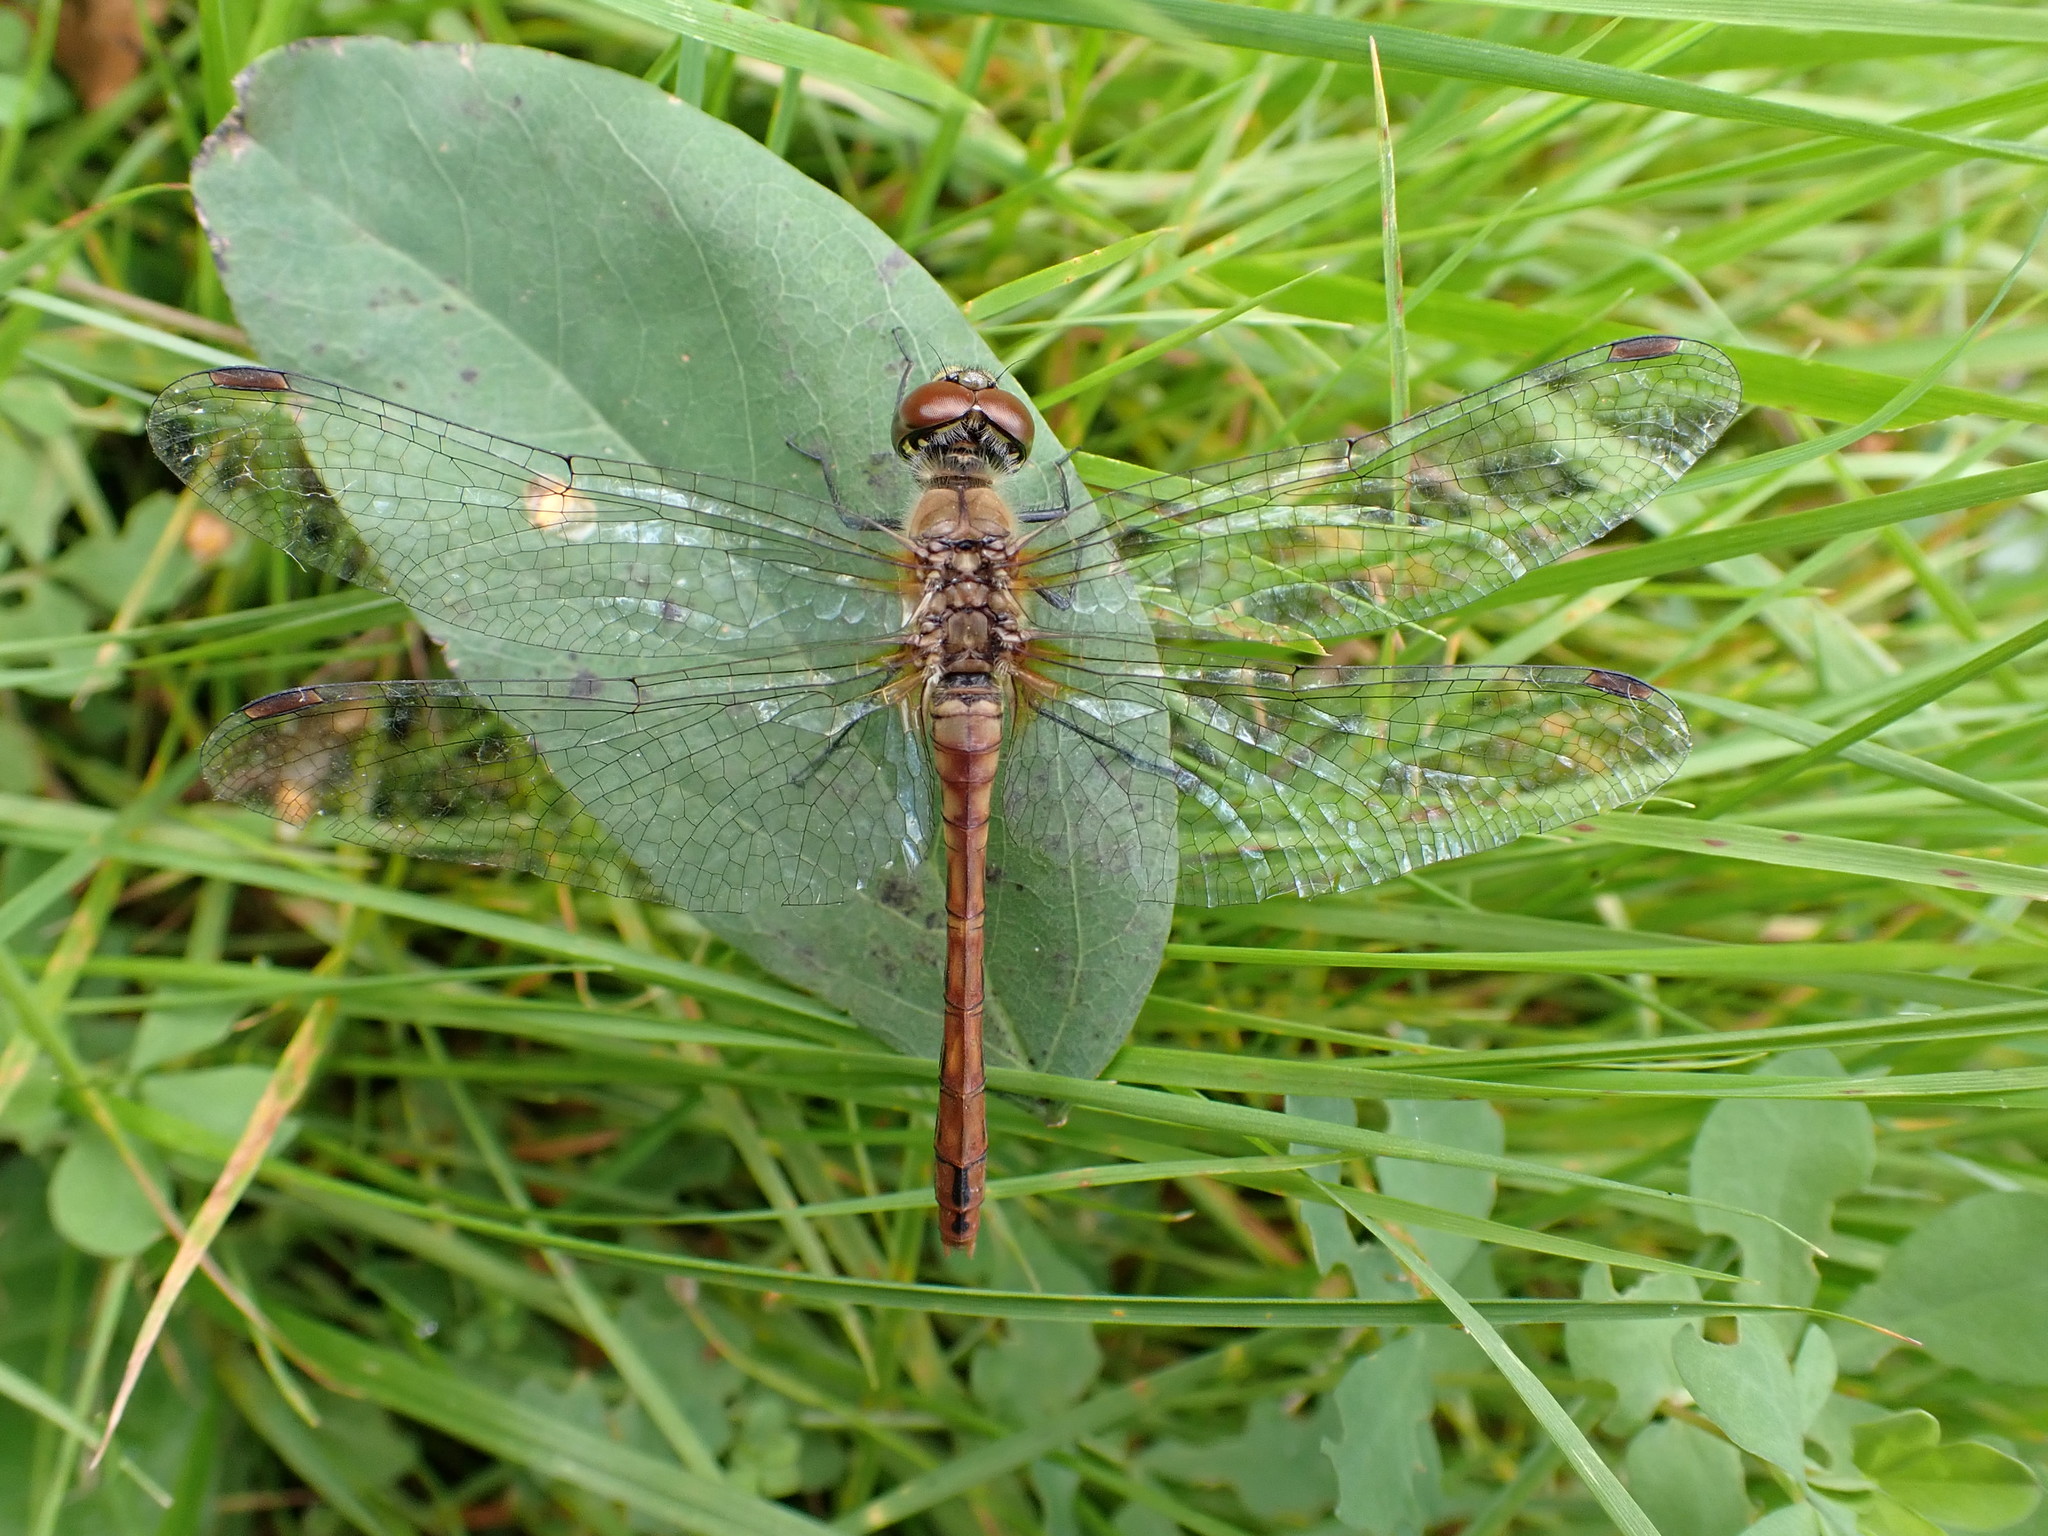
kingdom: Animalia
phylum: Arthropoda
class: Insecta
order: Odonata
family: Libellulidae
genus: Sympetrum
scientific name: Sympetrum sanguineum
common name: Ruddy darter
